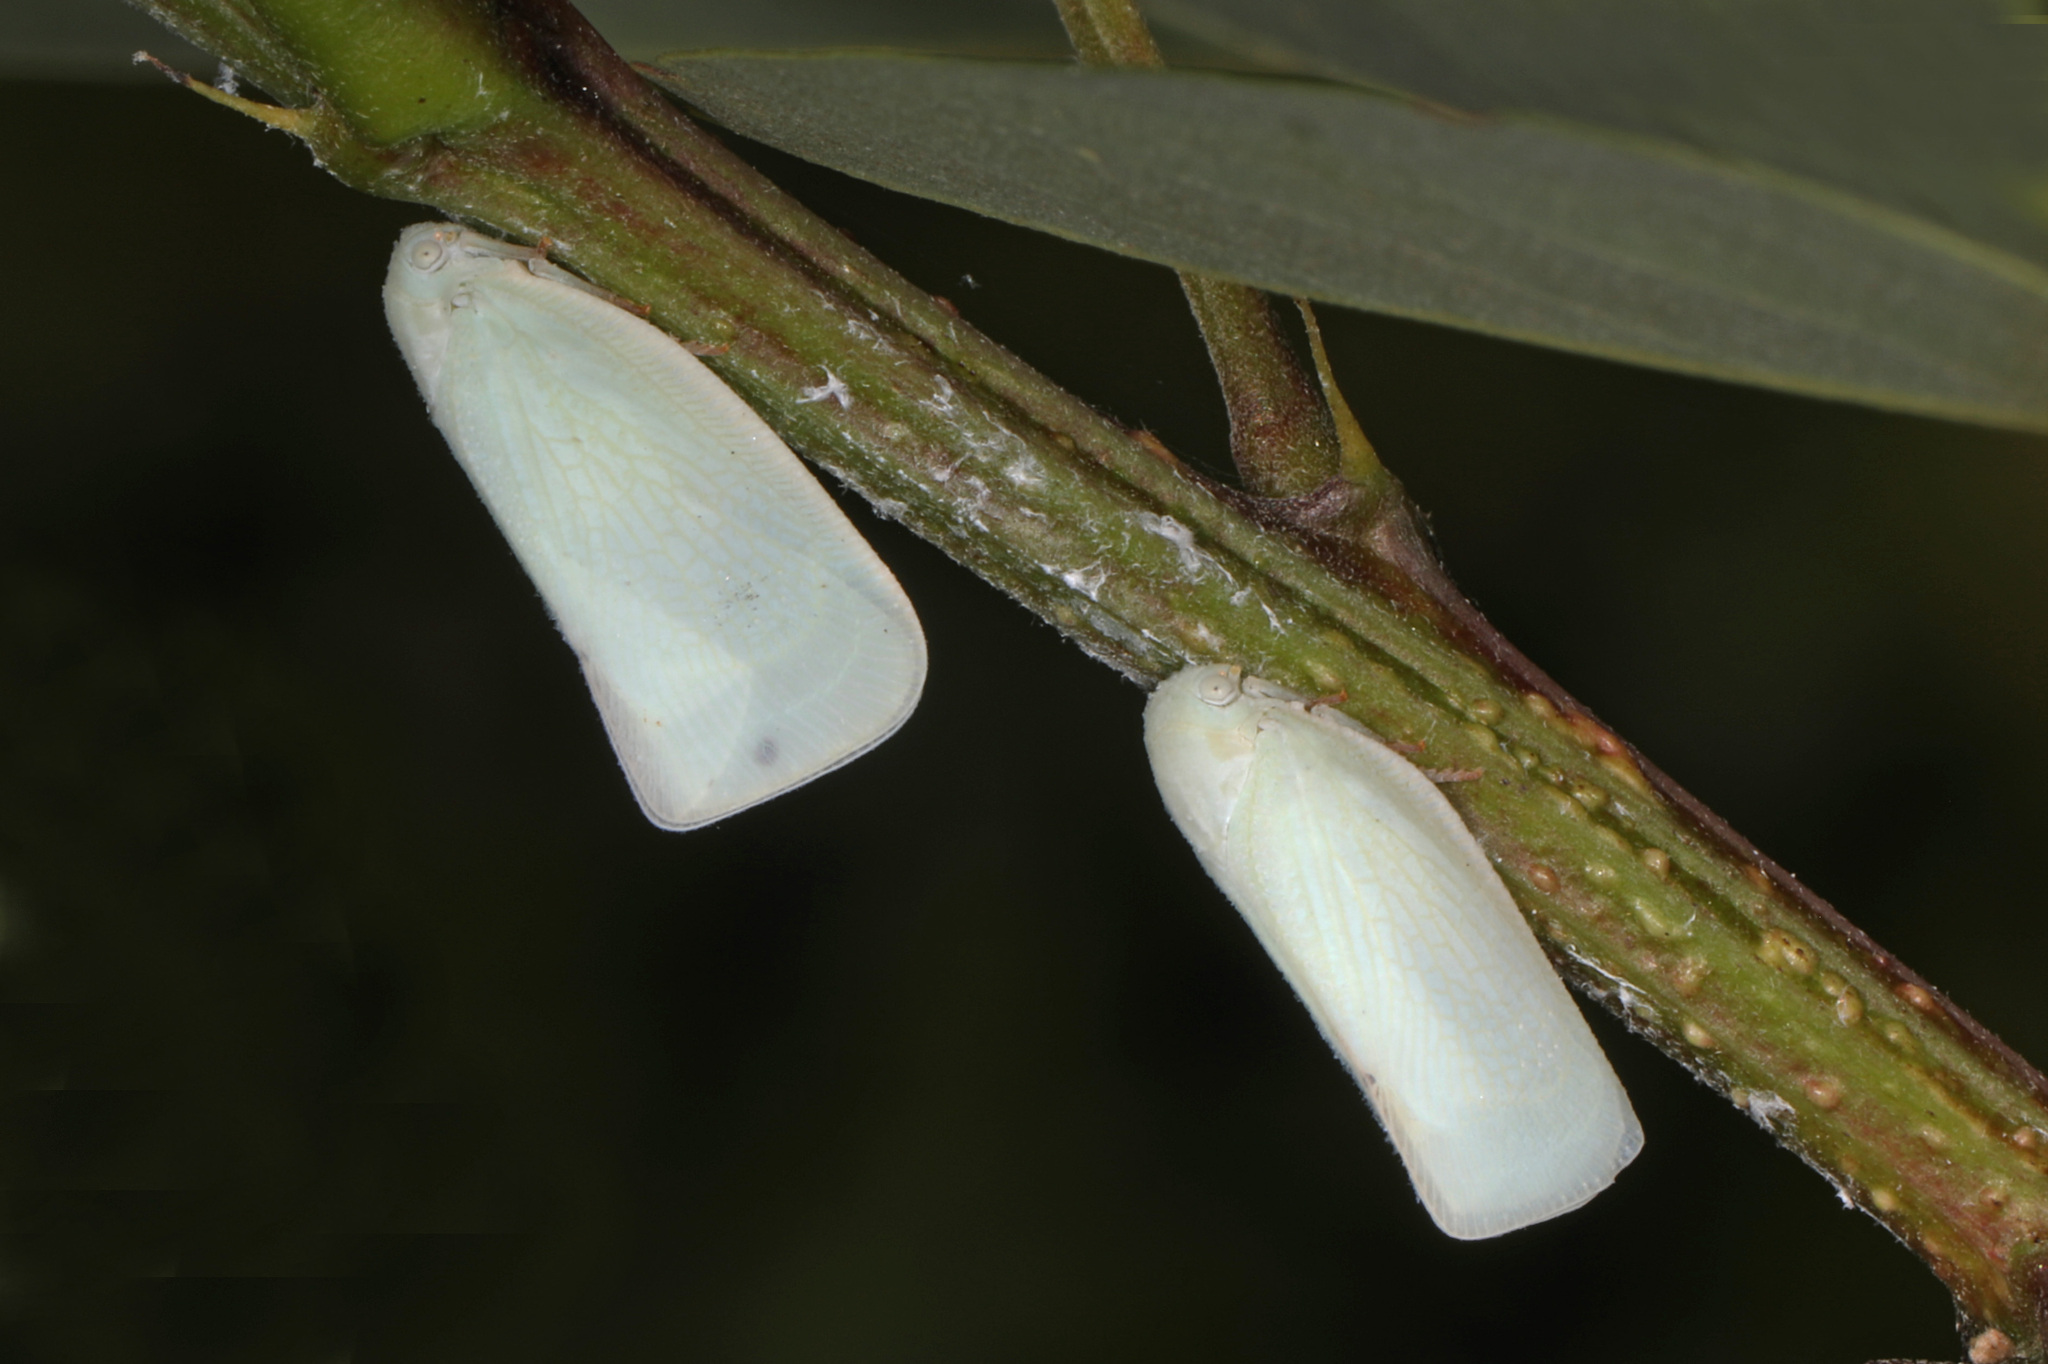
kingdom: Animalia
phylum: Arthropoda
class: Insecta
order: Hemiptera
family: Flatidae
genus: Flatormenis
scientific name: Flatormenis proxima
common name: Northern flatid planthopper
